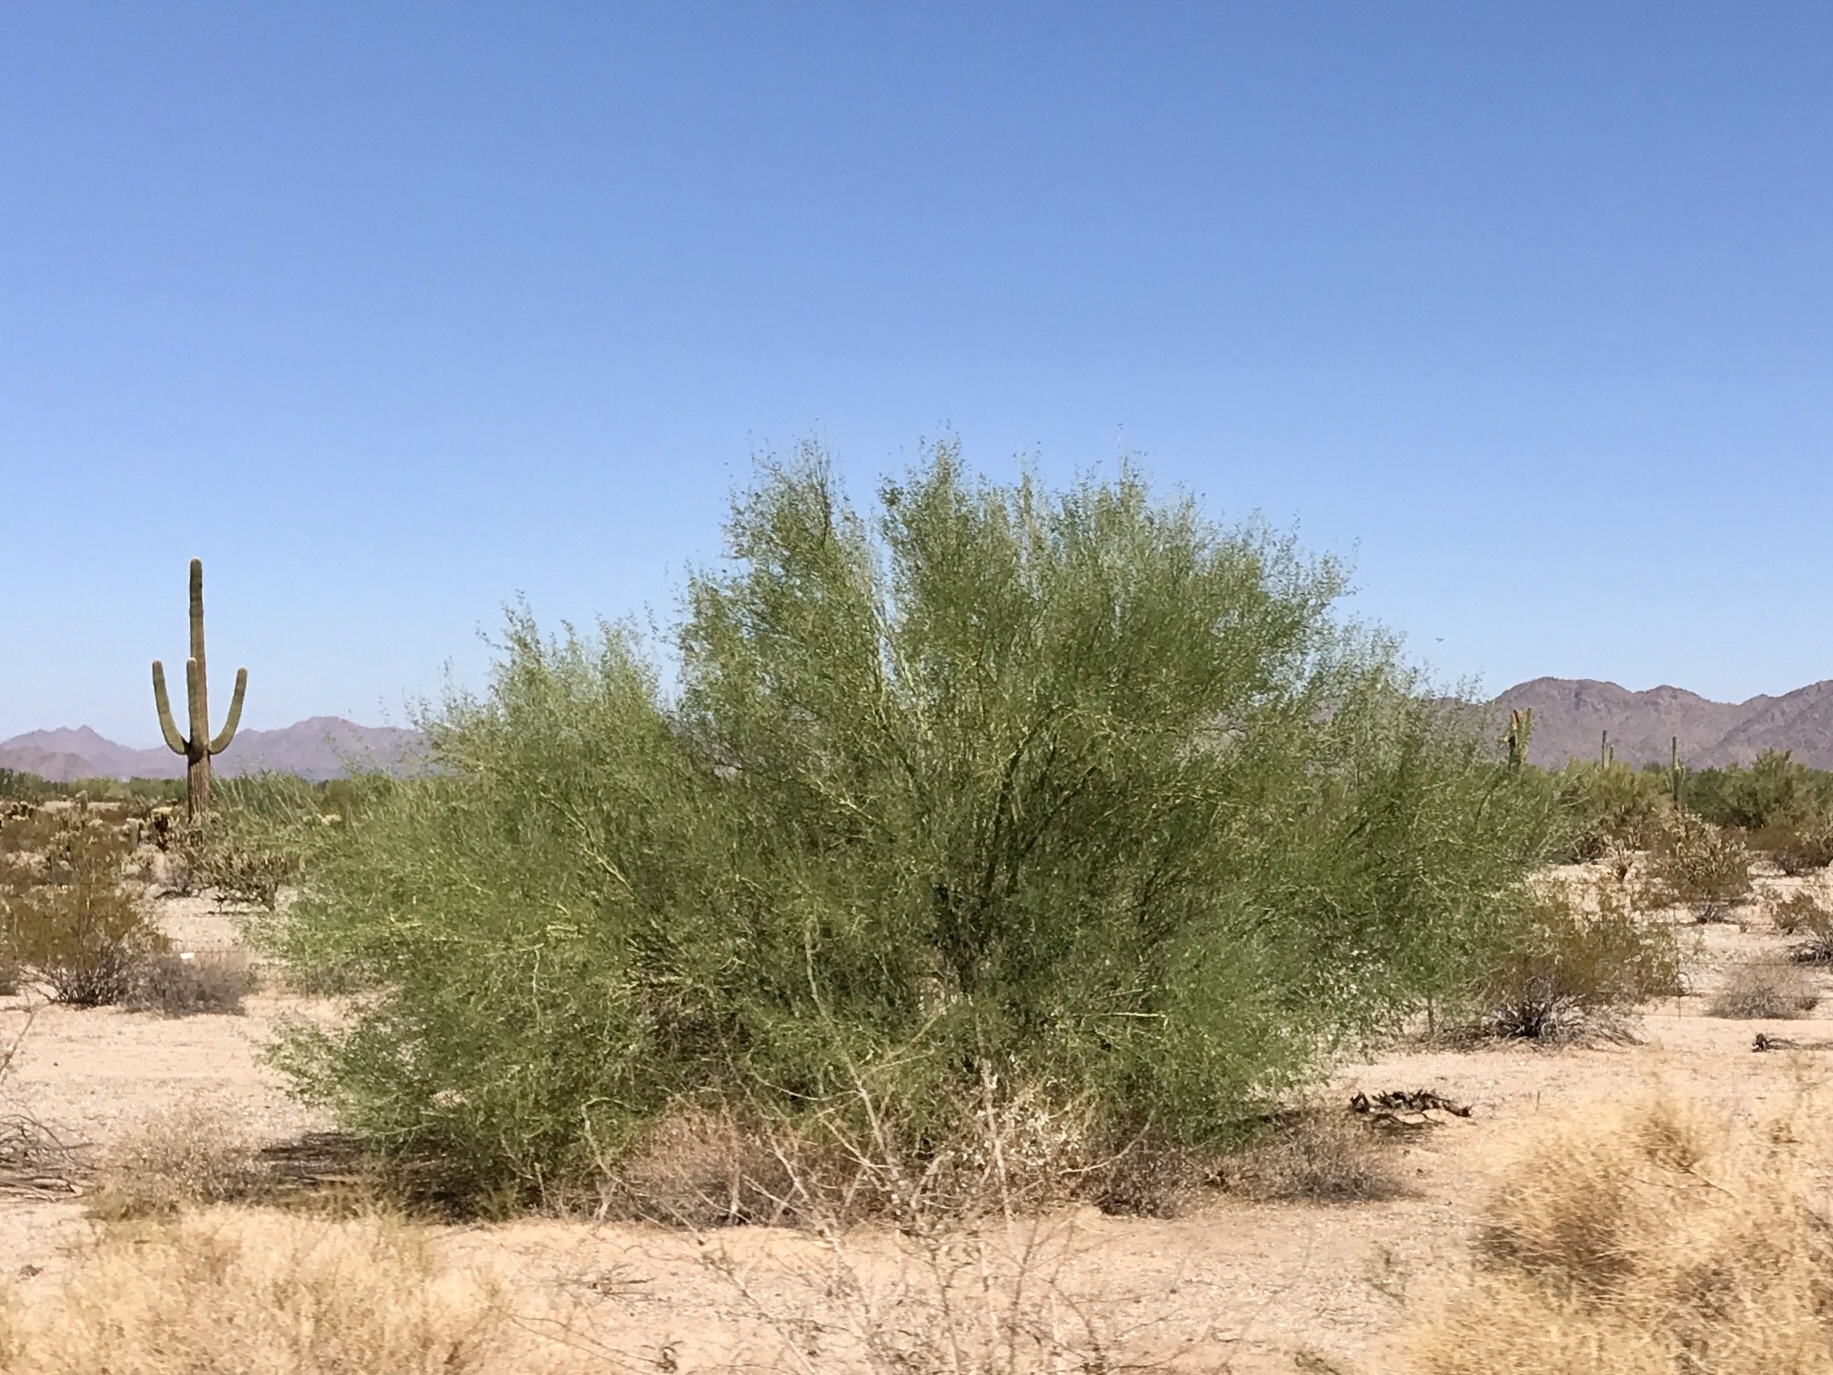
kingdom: Plantae
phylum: Tracheophyta
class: Magnoliopsida
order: Fabales
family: Fabaceae
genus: Parkinsonia
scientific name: Parkinsonia florida
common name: Blue paloverde
